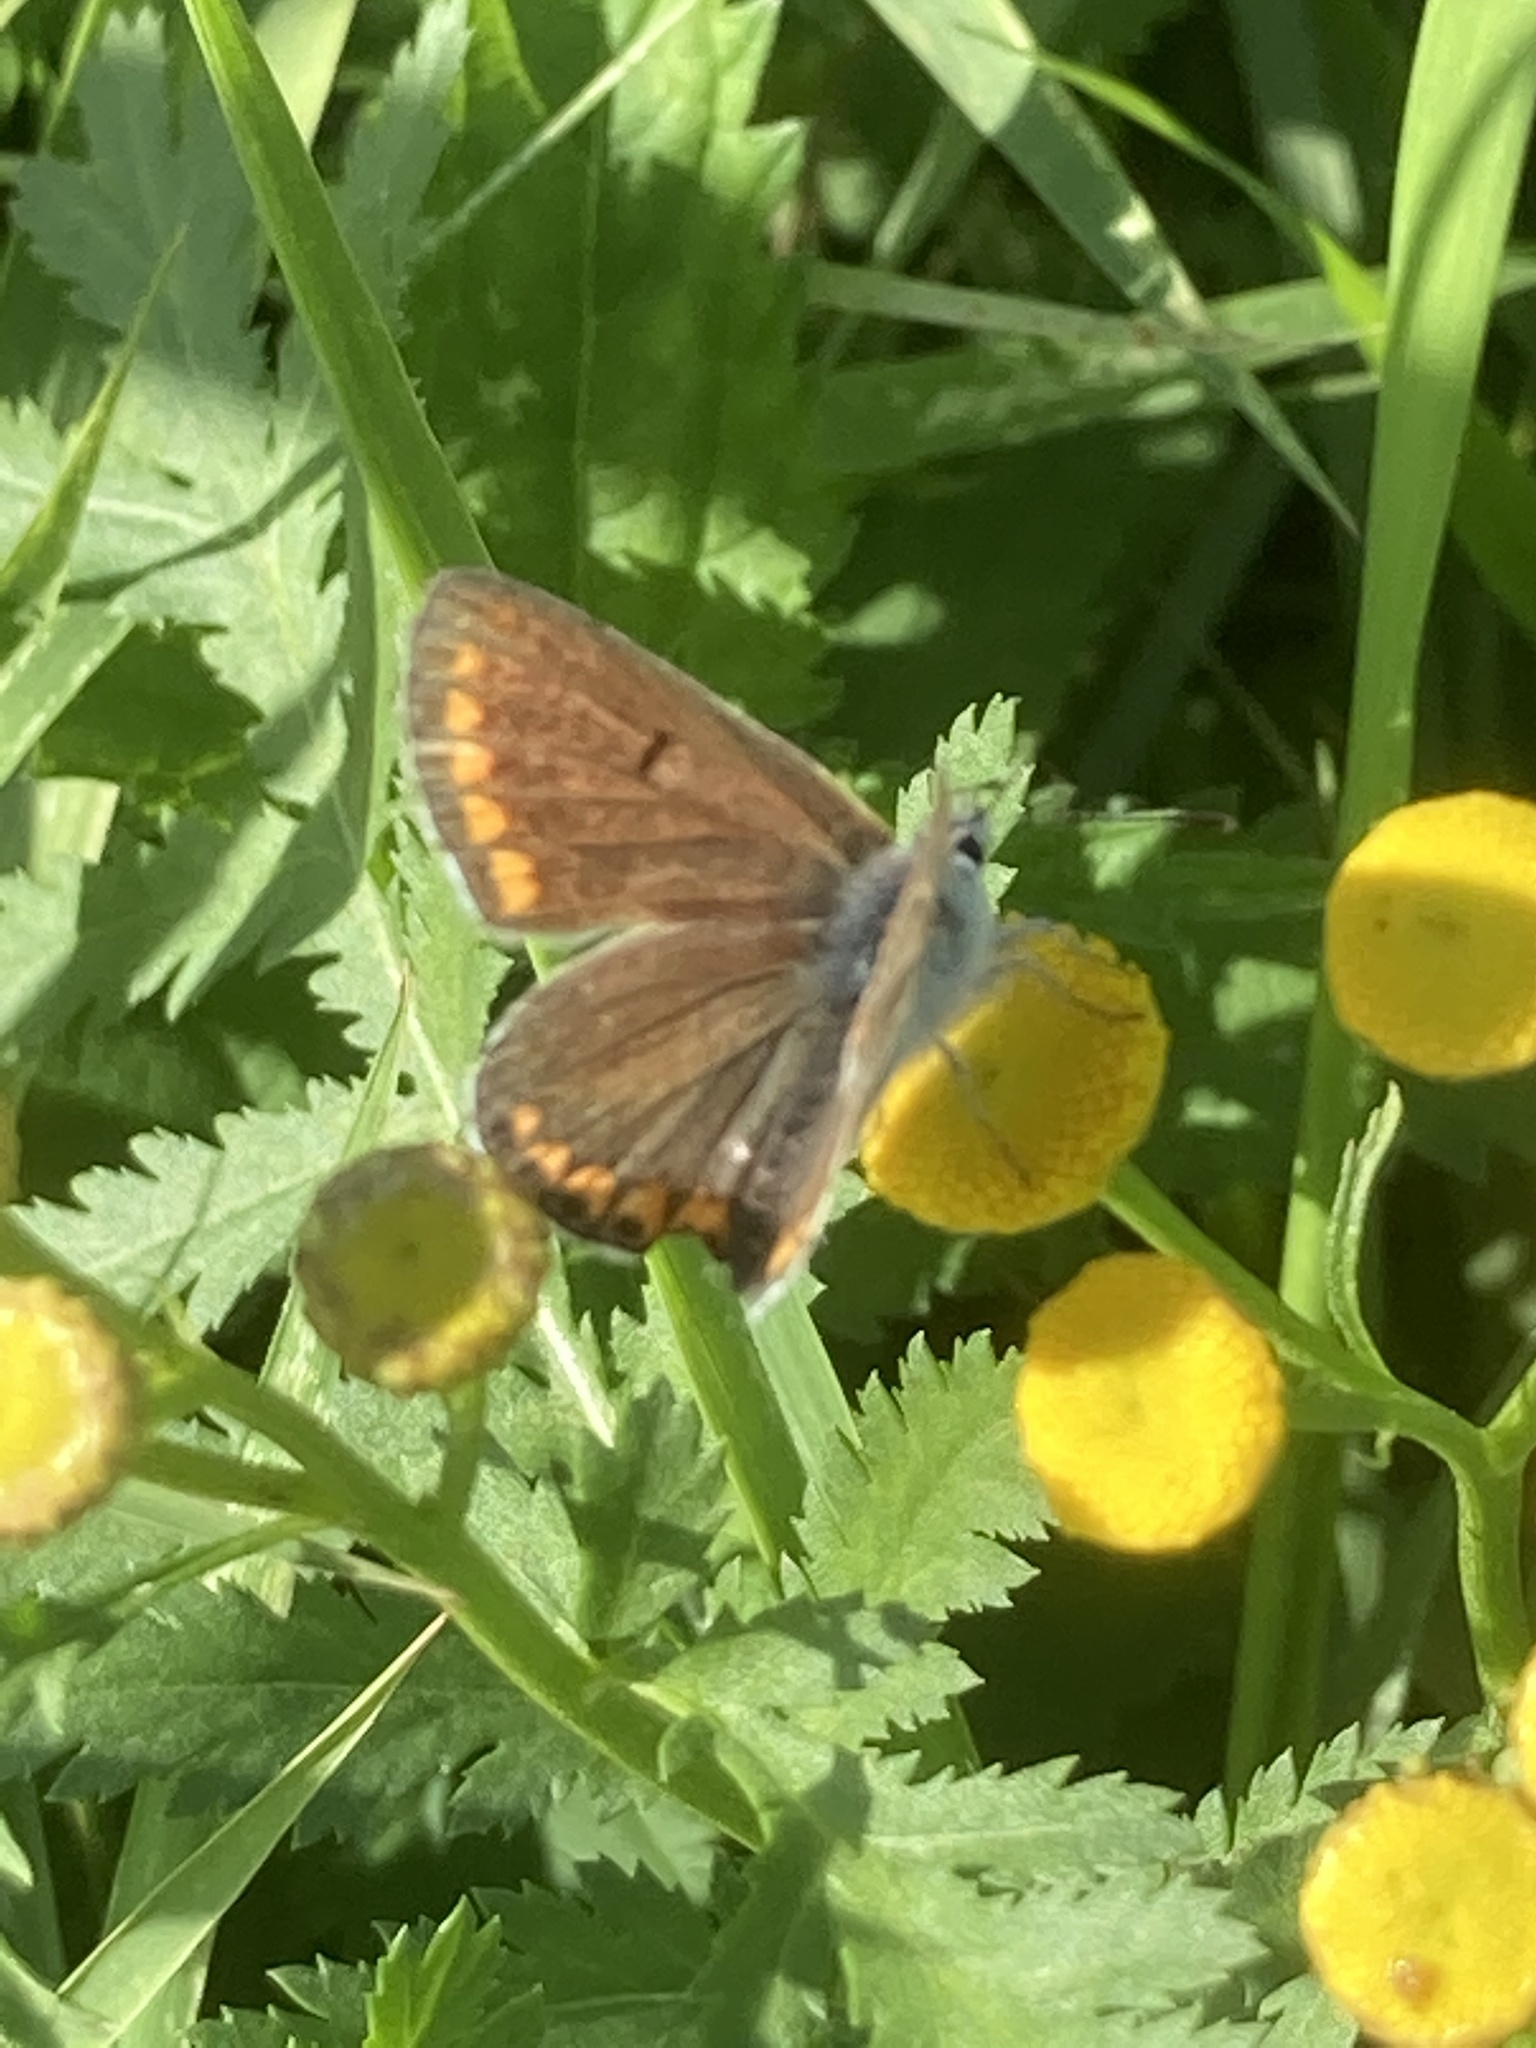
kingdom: Animalia
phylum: Arthropoda
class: Insecta
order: Lepidoptera
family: Lycaenidae
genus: Aricia
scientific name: Aricia agestis
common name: Brown argus
